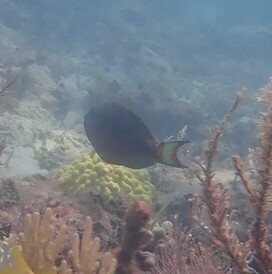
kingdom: Animalia
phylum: Chordata
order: Perciformes
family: Scaridae
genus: Sparisoma
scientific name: Sparisoma viride
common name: Stoplight parrotfish
